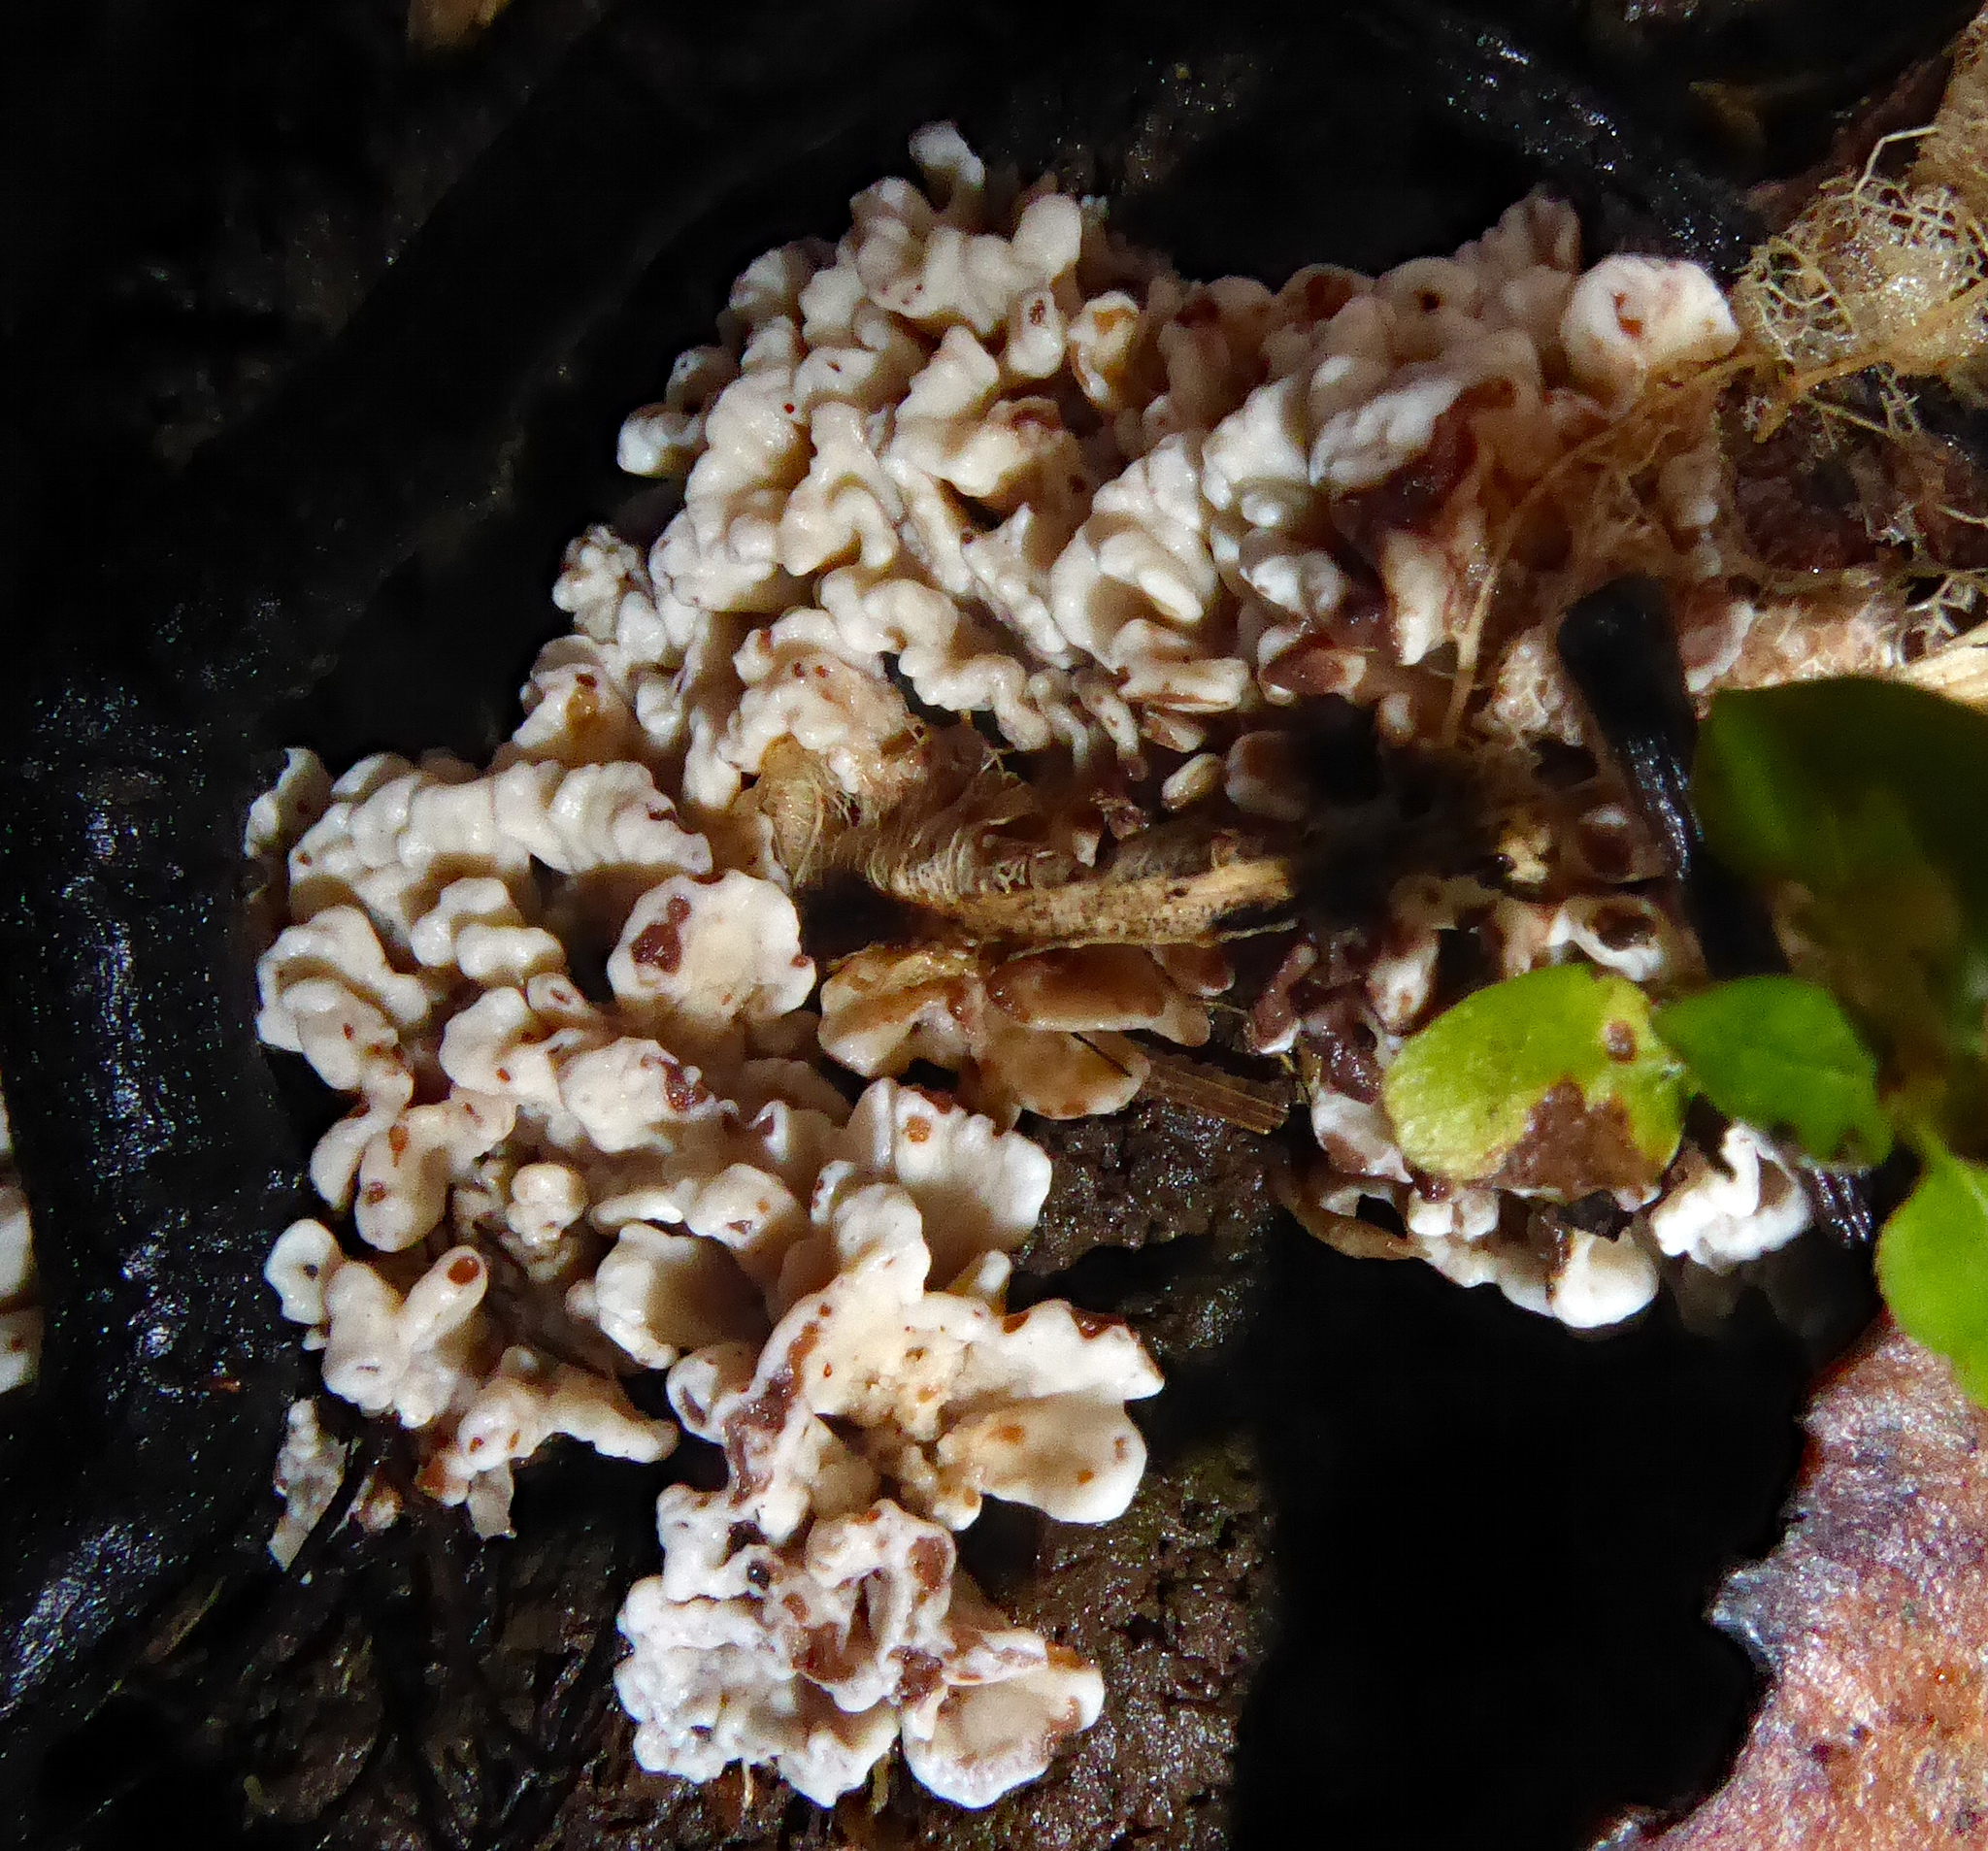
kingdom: Fungi
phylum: Basidiomycota
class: Agaricomycetes
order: Stereopsidales
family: Stereopsidaceae
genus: Stereopsis
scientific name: Stereopsis hiscens
